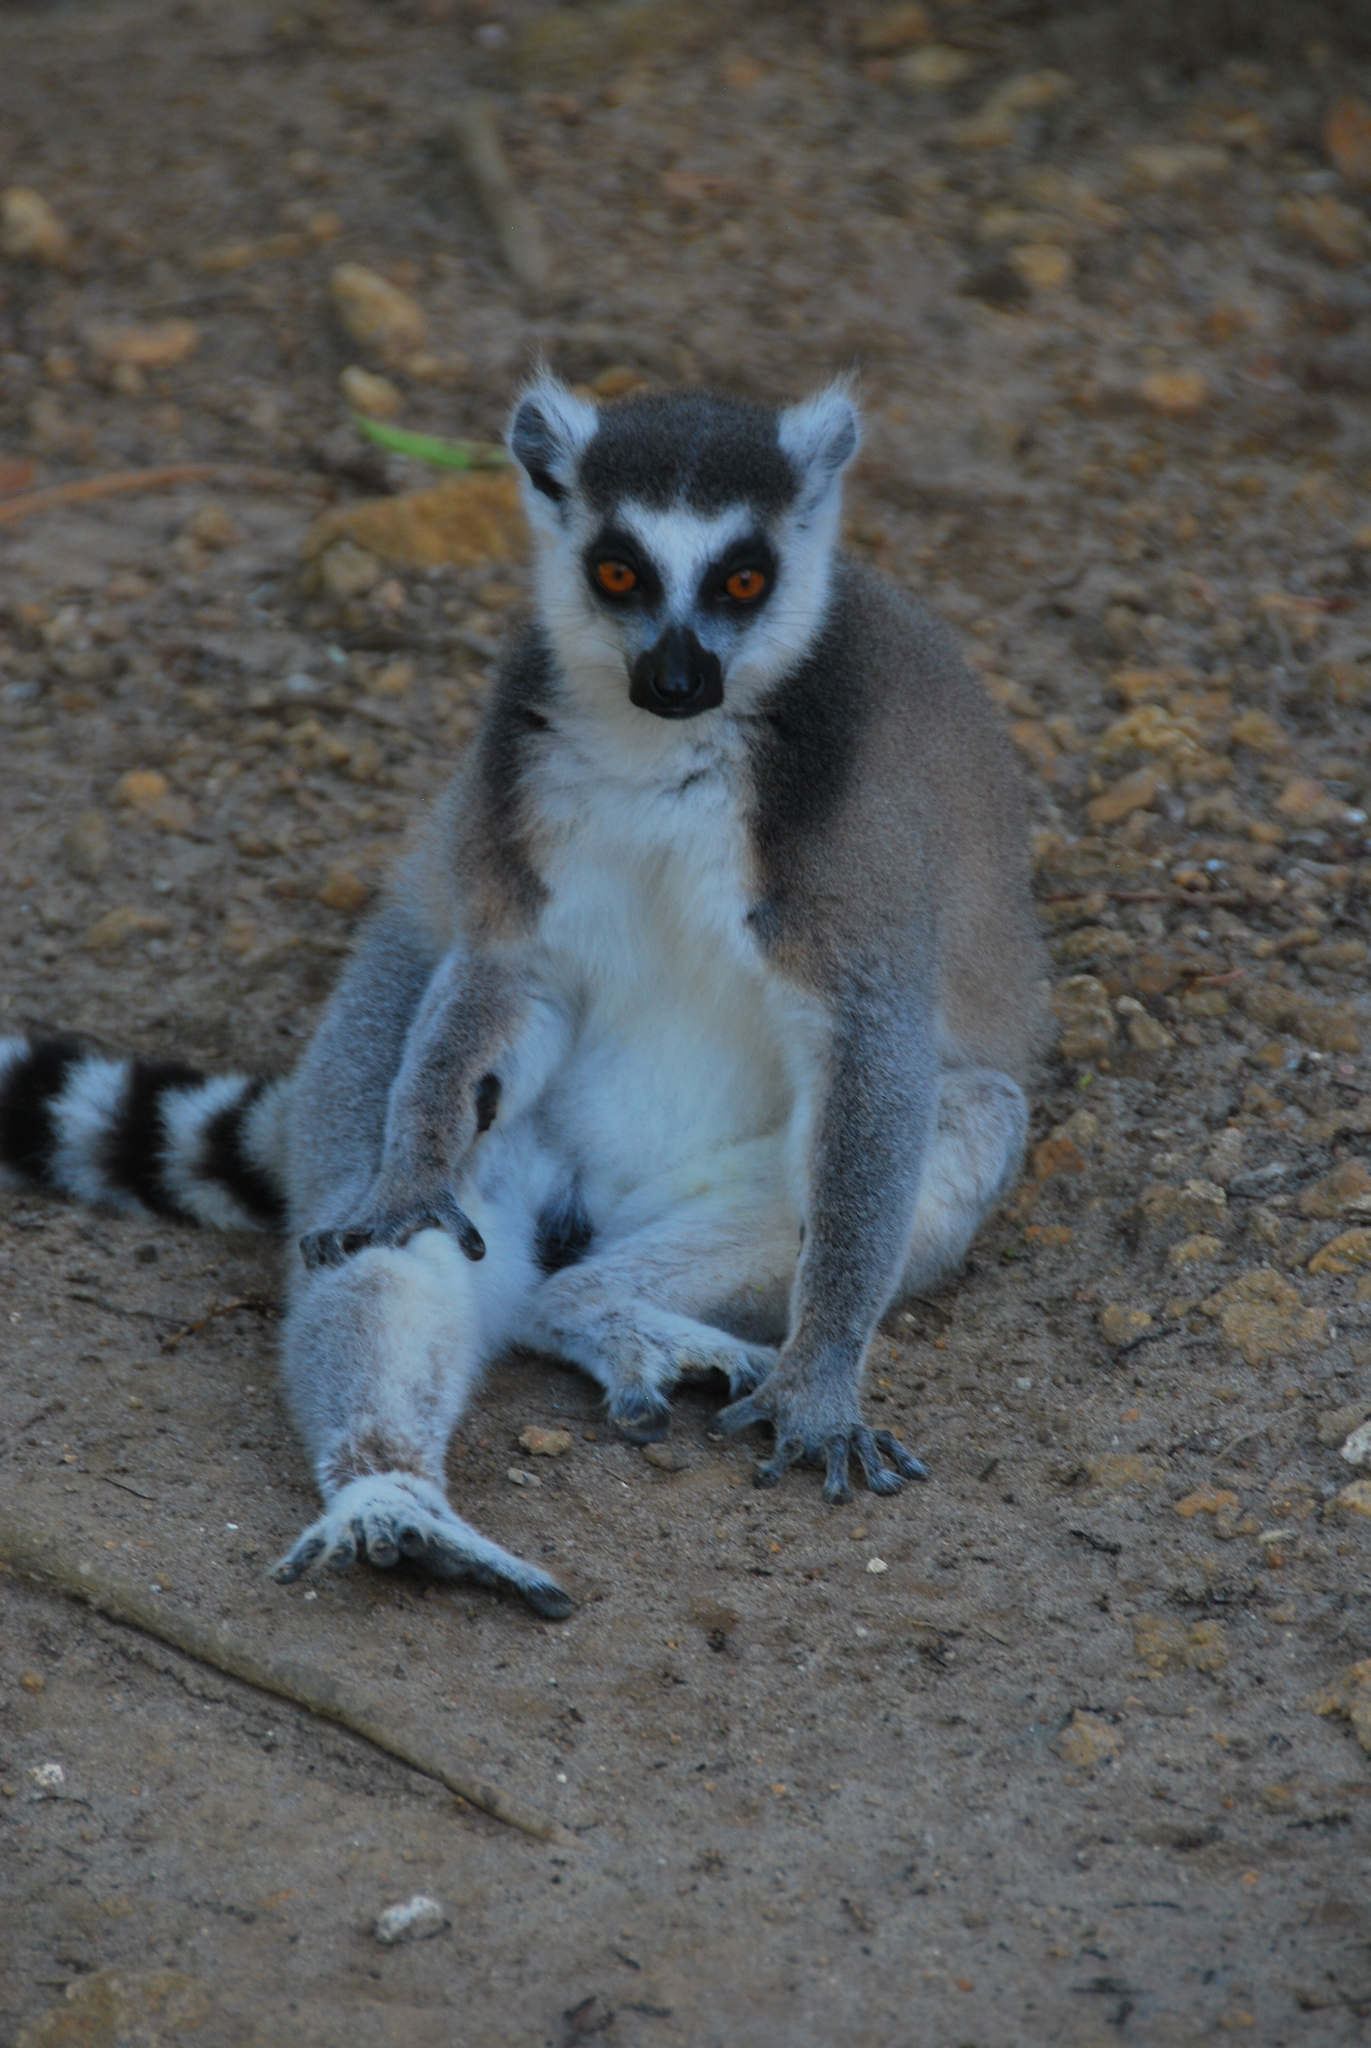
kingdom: Animalia
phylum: Chordata
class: Mammalia
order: Primates
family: Lemuridae
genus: Lemur
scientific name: Lemur catta
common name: Ring-tailed lemur
